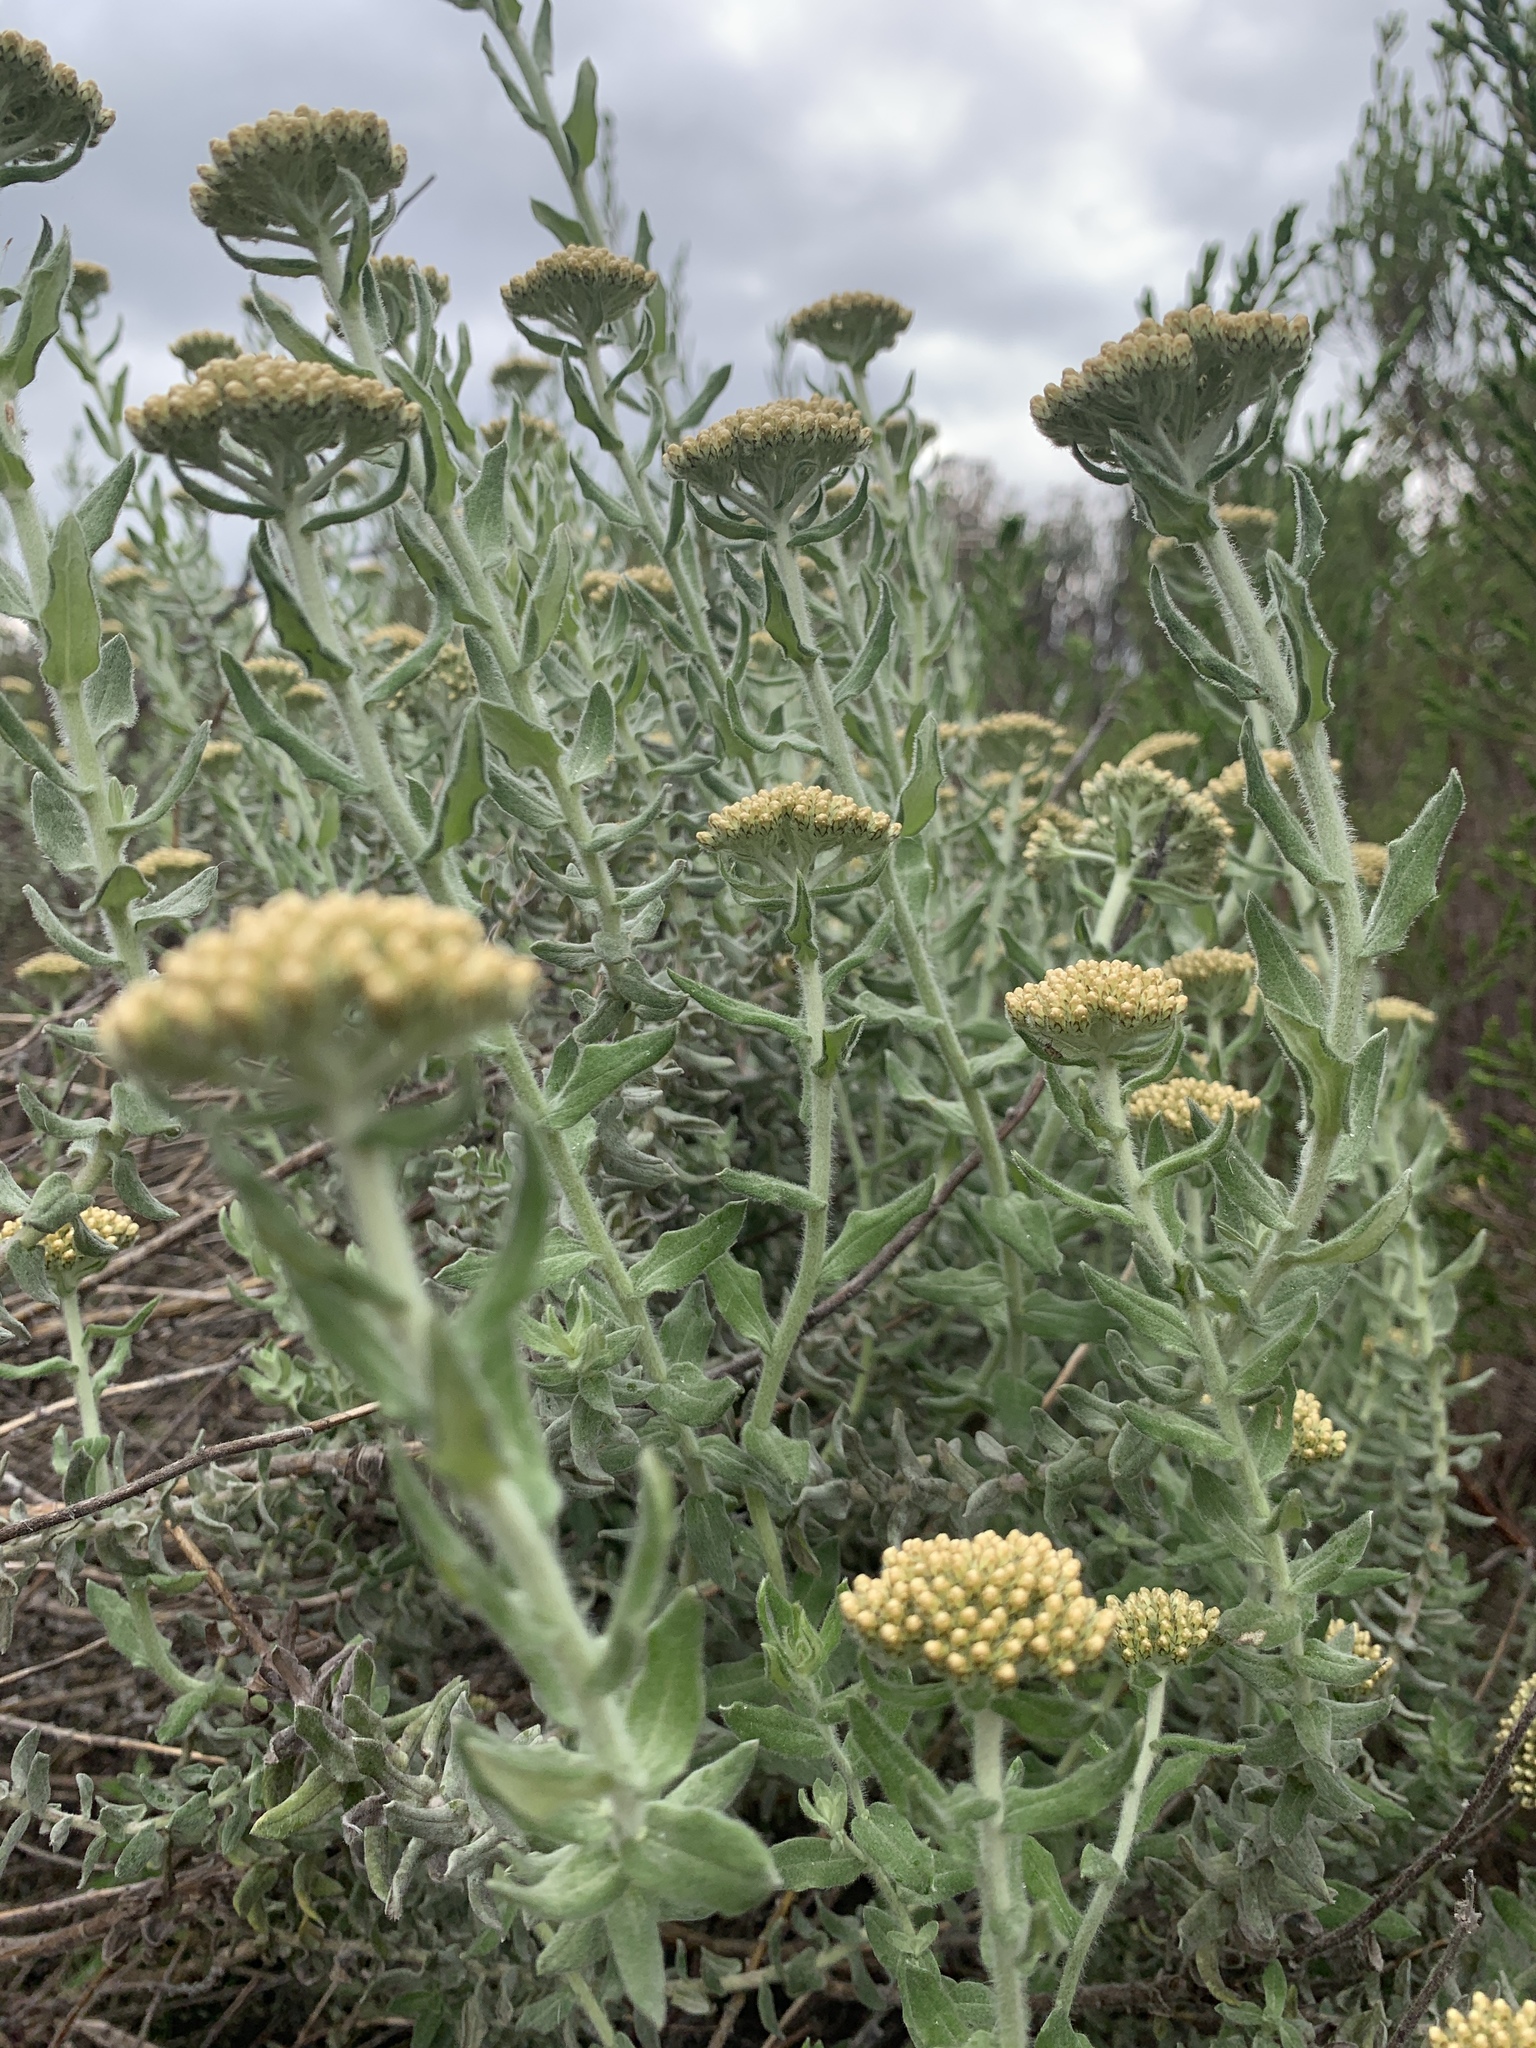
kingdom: Plantae
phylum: Tracheophyta
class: Magnoliopsida
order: Asterales
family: Asteraceae
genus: Helichrysum
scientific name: Helichrysum dasyanthum
